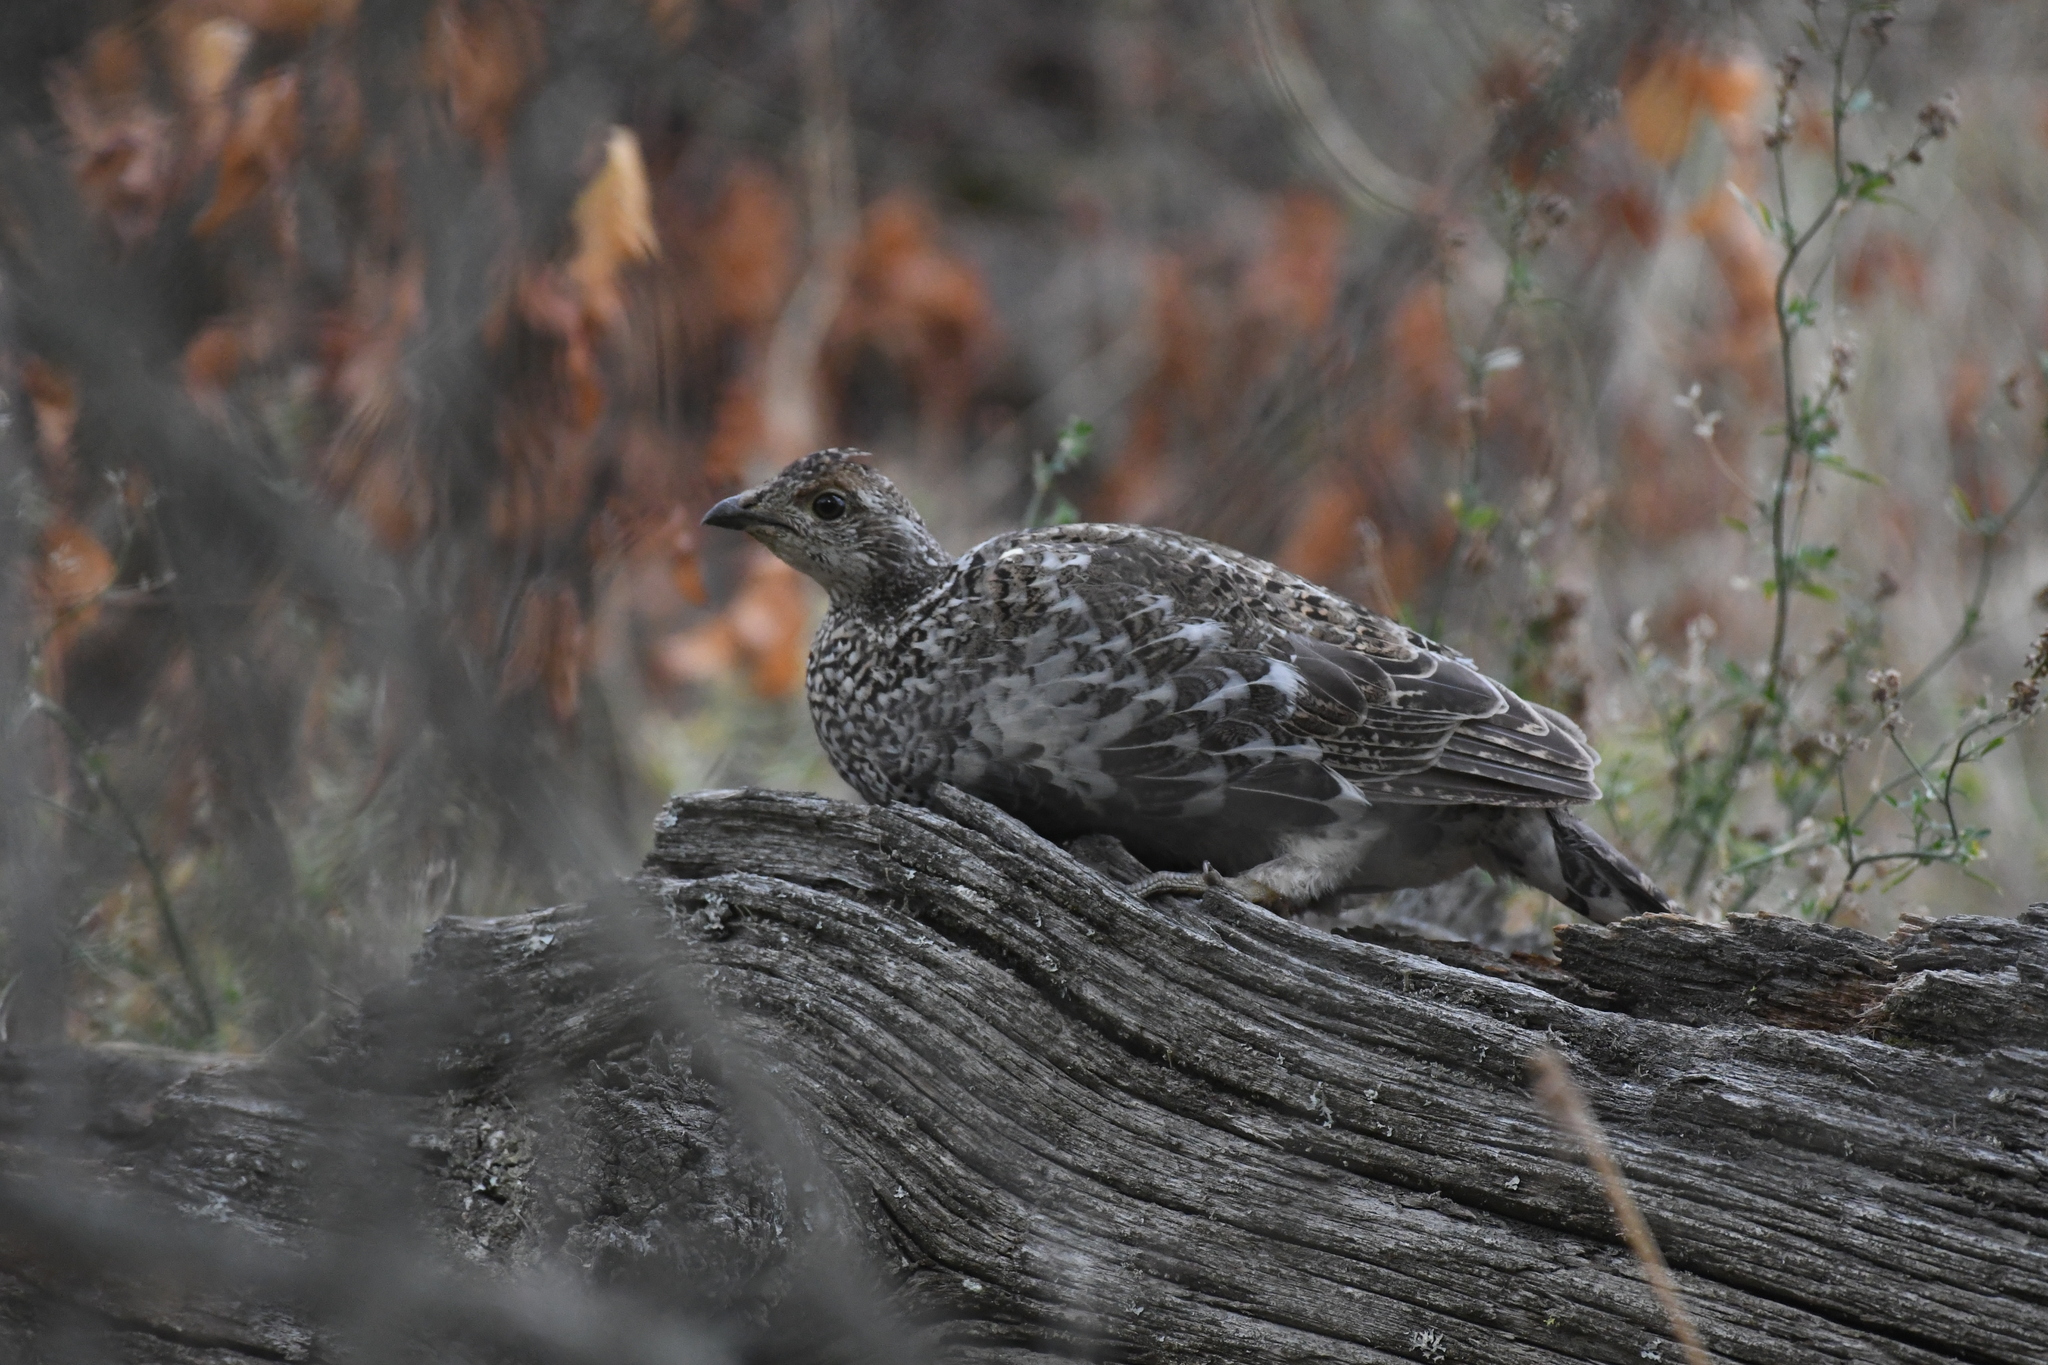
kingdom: Animalia
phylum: Chordata
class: Aves
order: Galliformes
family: Phasianidae
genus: Dendragapus
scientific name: Dendragapus obscurus
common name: Dusky grouse
